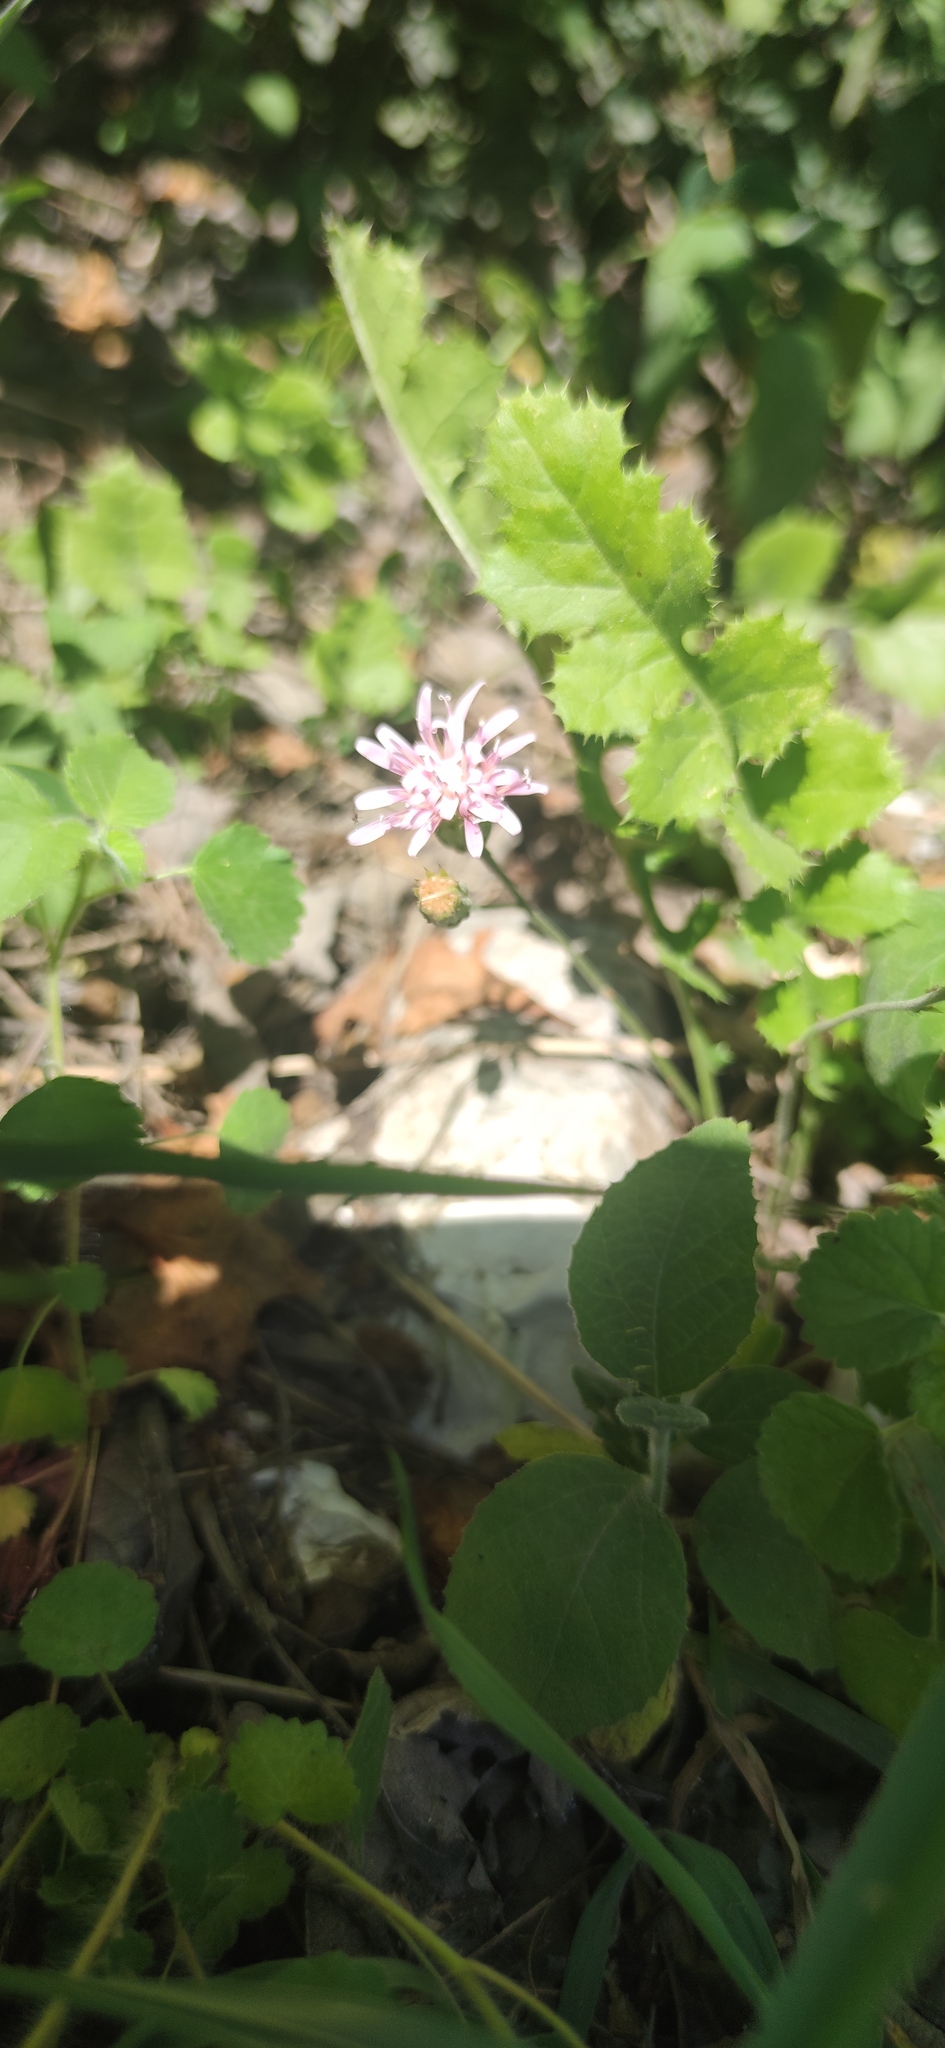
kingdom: Plantae
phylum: Tracheophyta
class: Magnoliopsida
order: Asterales
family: Asteraceae
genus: Acourtia
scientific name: Acourtia runcinata
